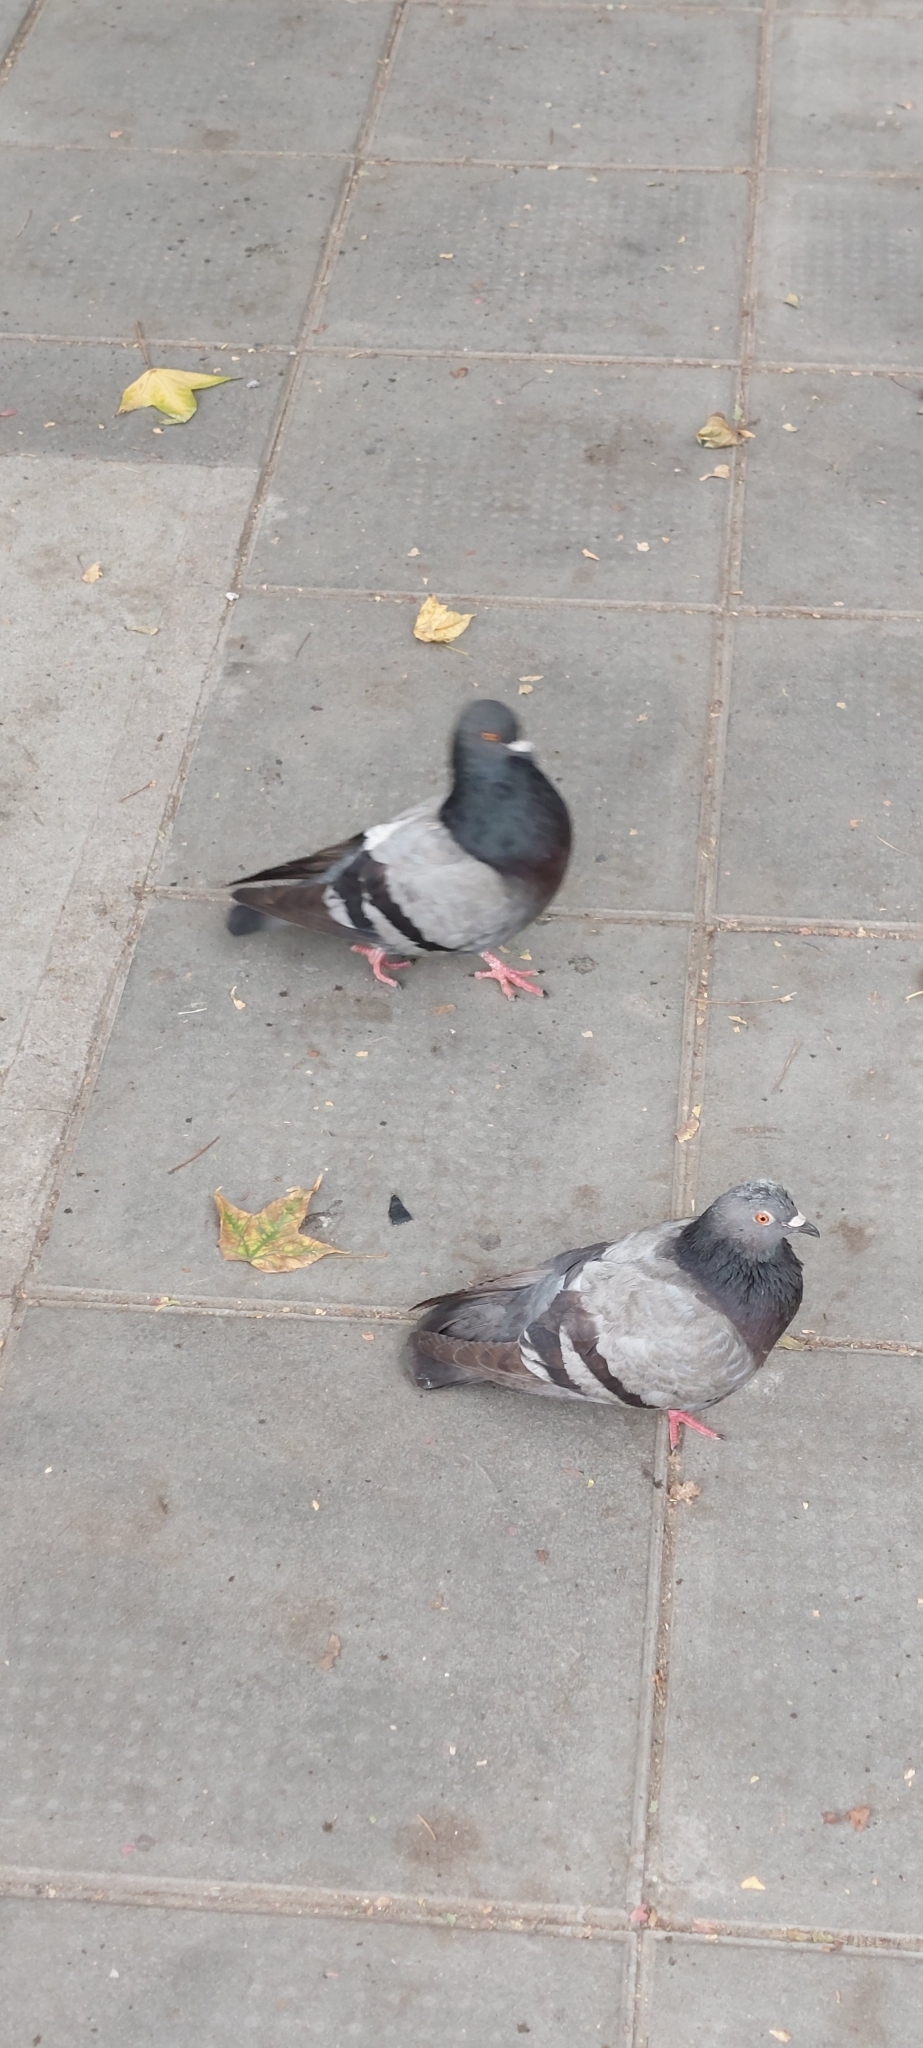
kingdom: Animalia
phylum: Chordata
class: Aves
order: Columbiformes
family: Columbidae
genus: Columba
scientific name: Columba livia
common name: Rock pigeon
